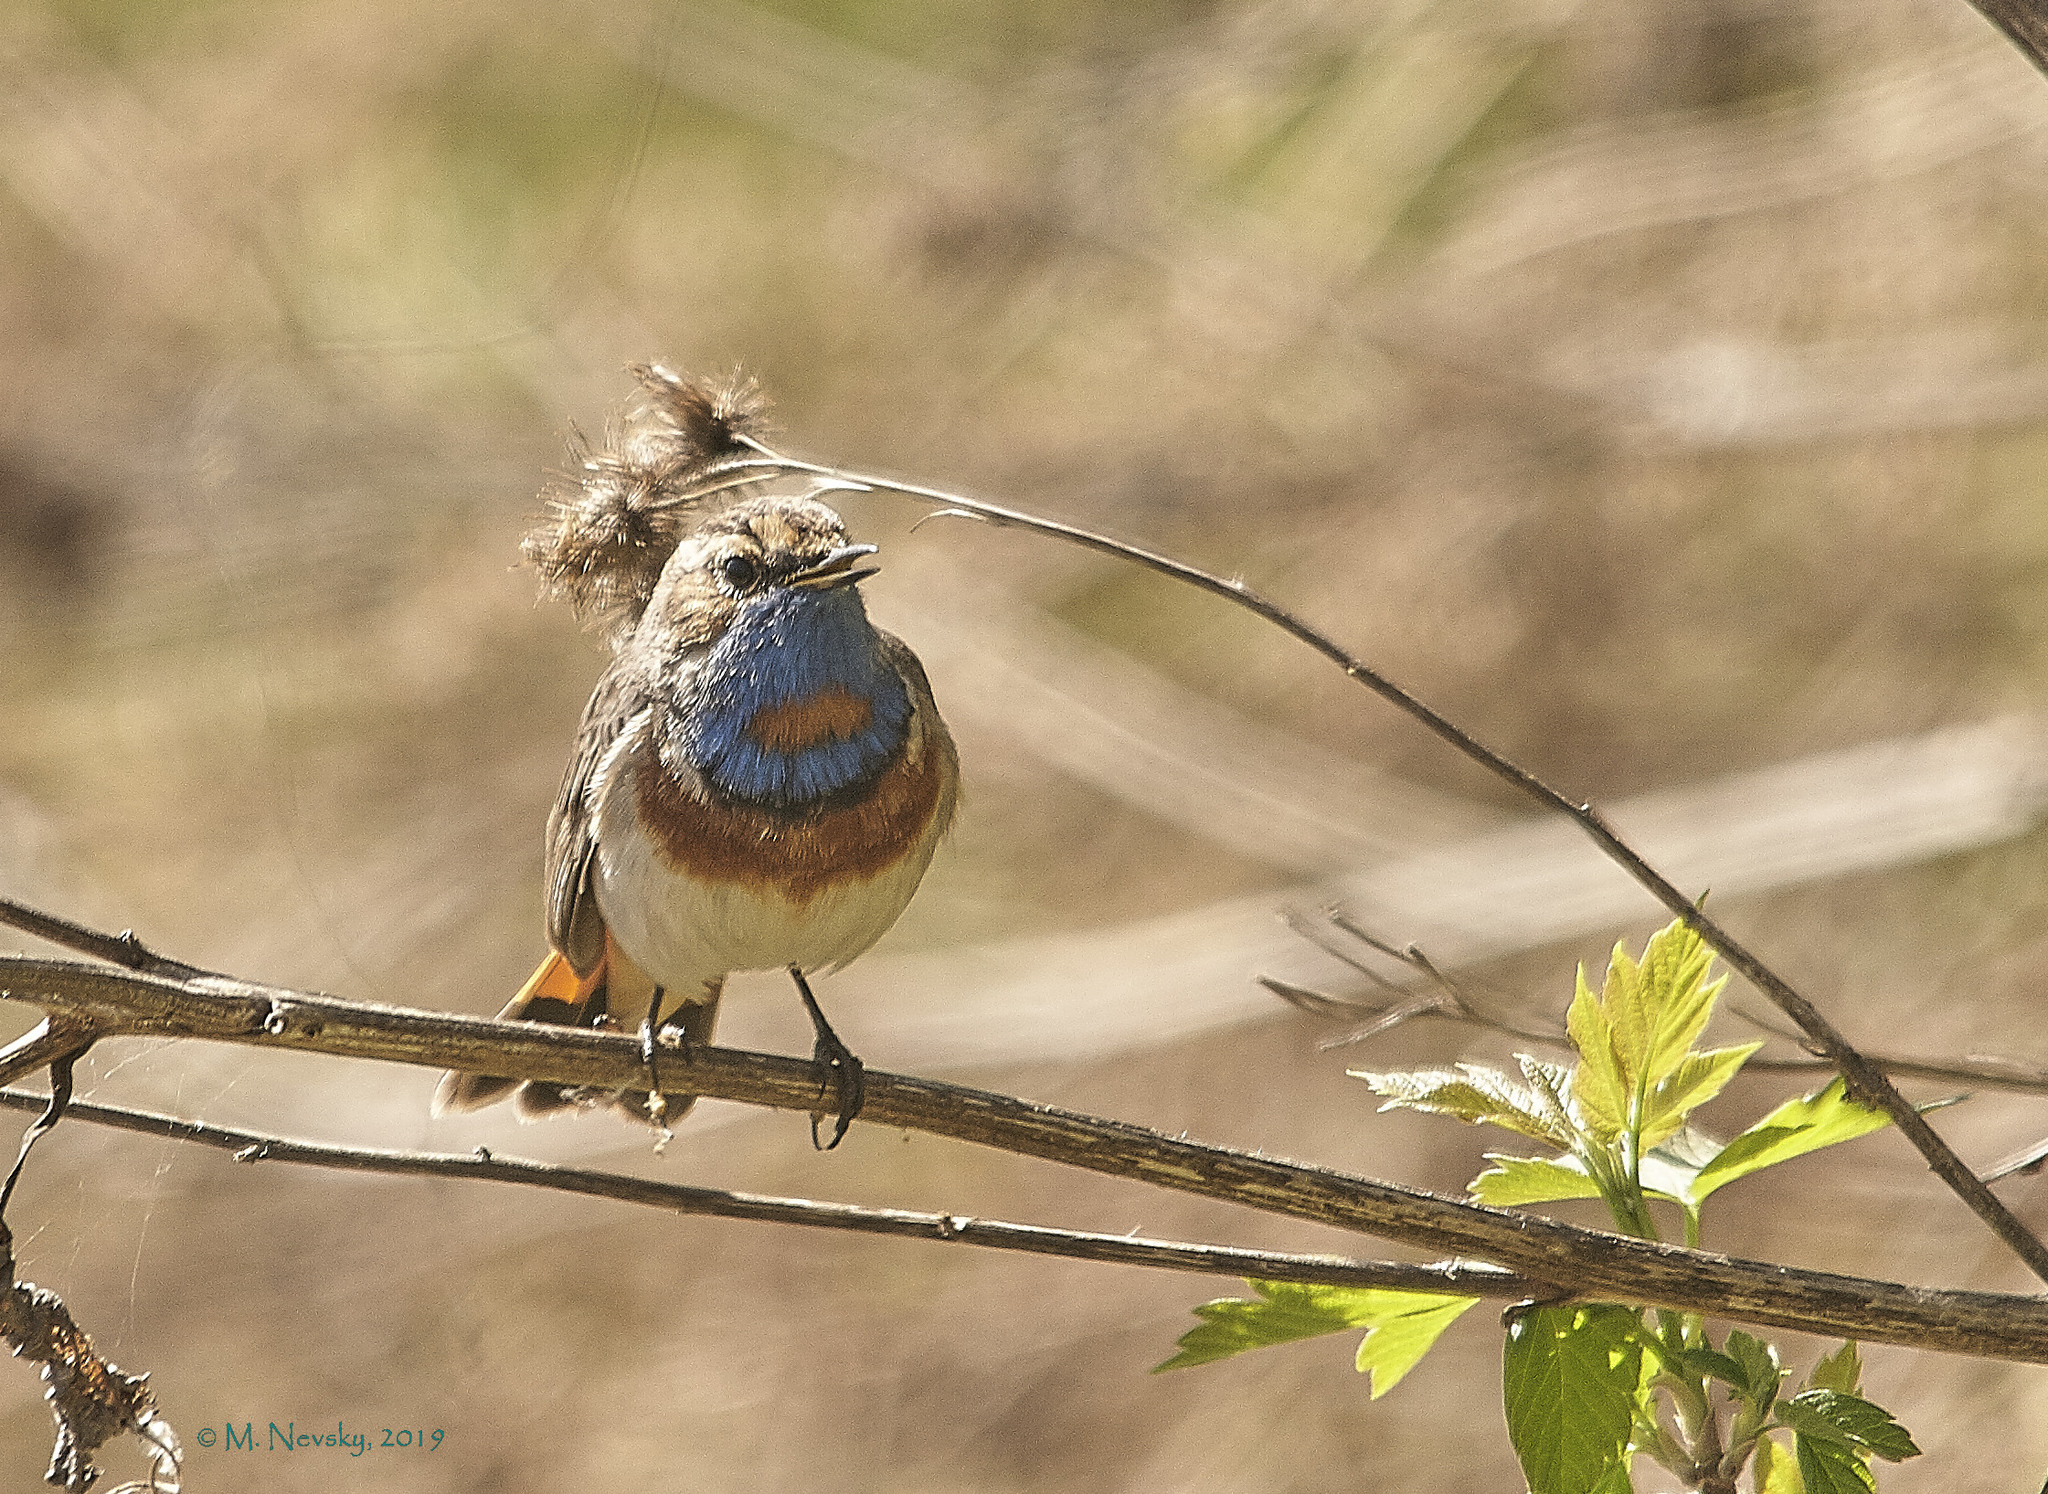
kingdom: Animalia
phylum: Chordata
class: Aves
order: Passeriformes
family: Muscicapidae
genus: Luscinia
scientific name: Luscinia svecica
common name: Bluethroat
